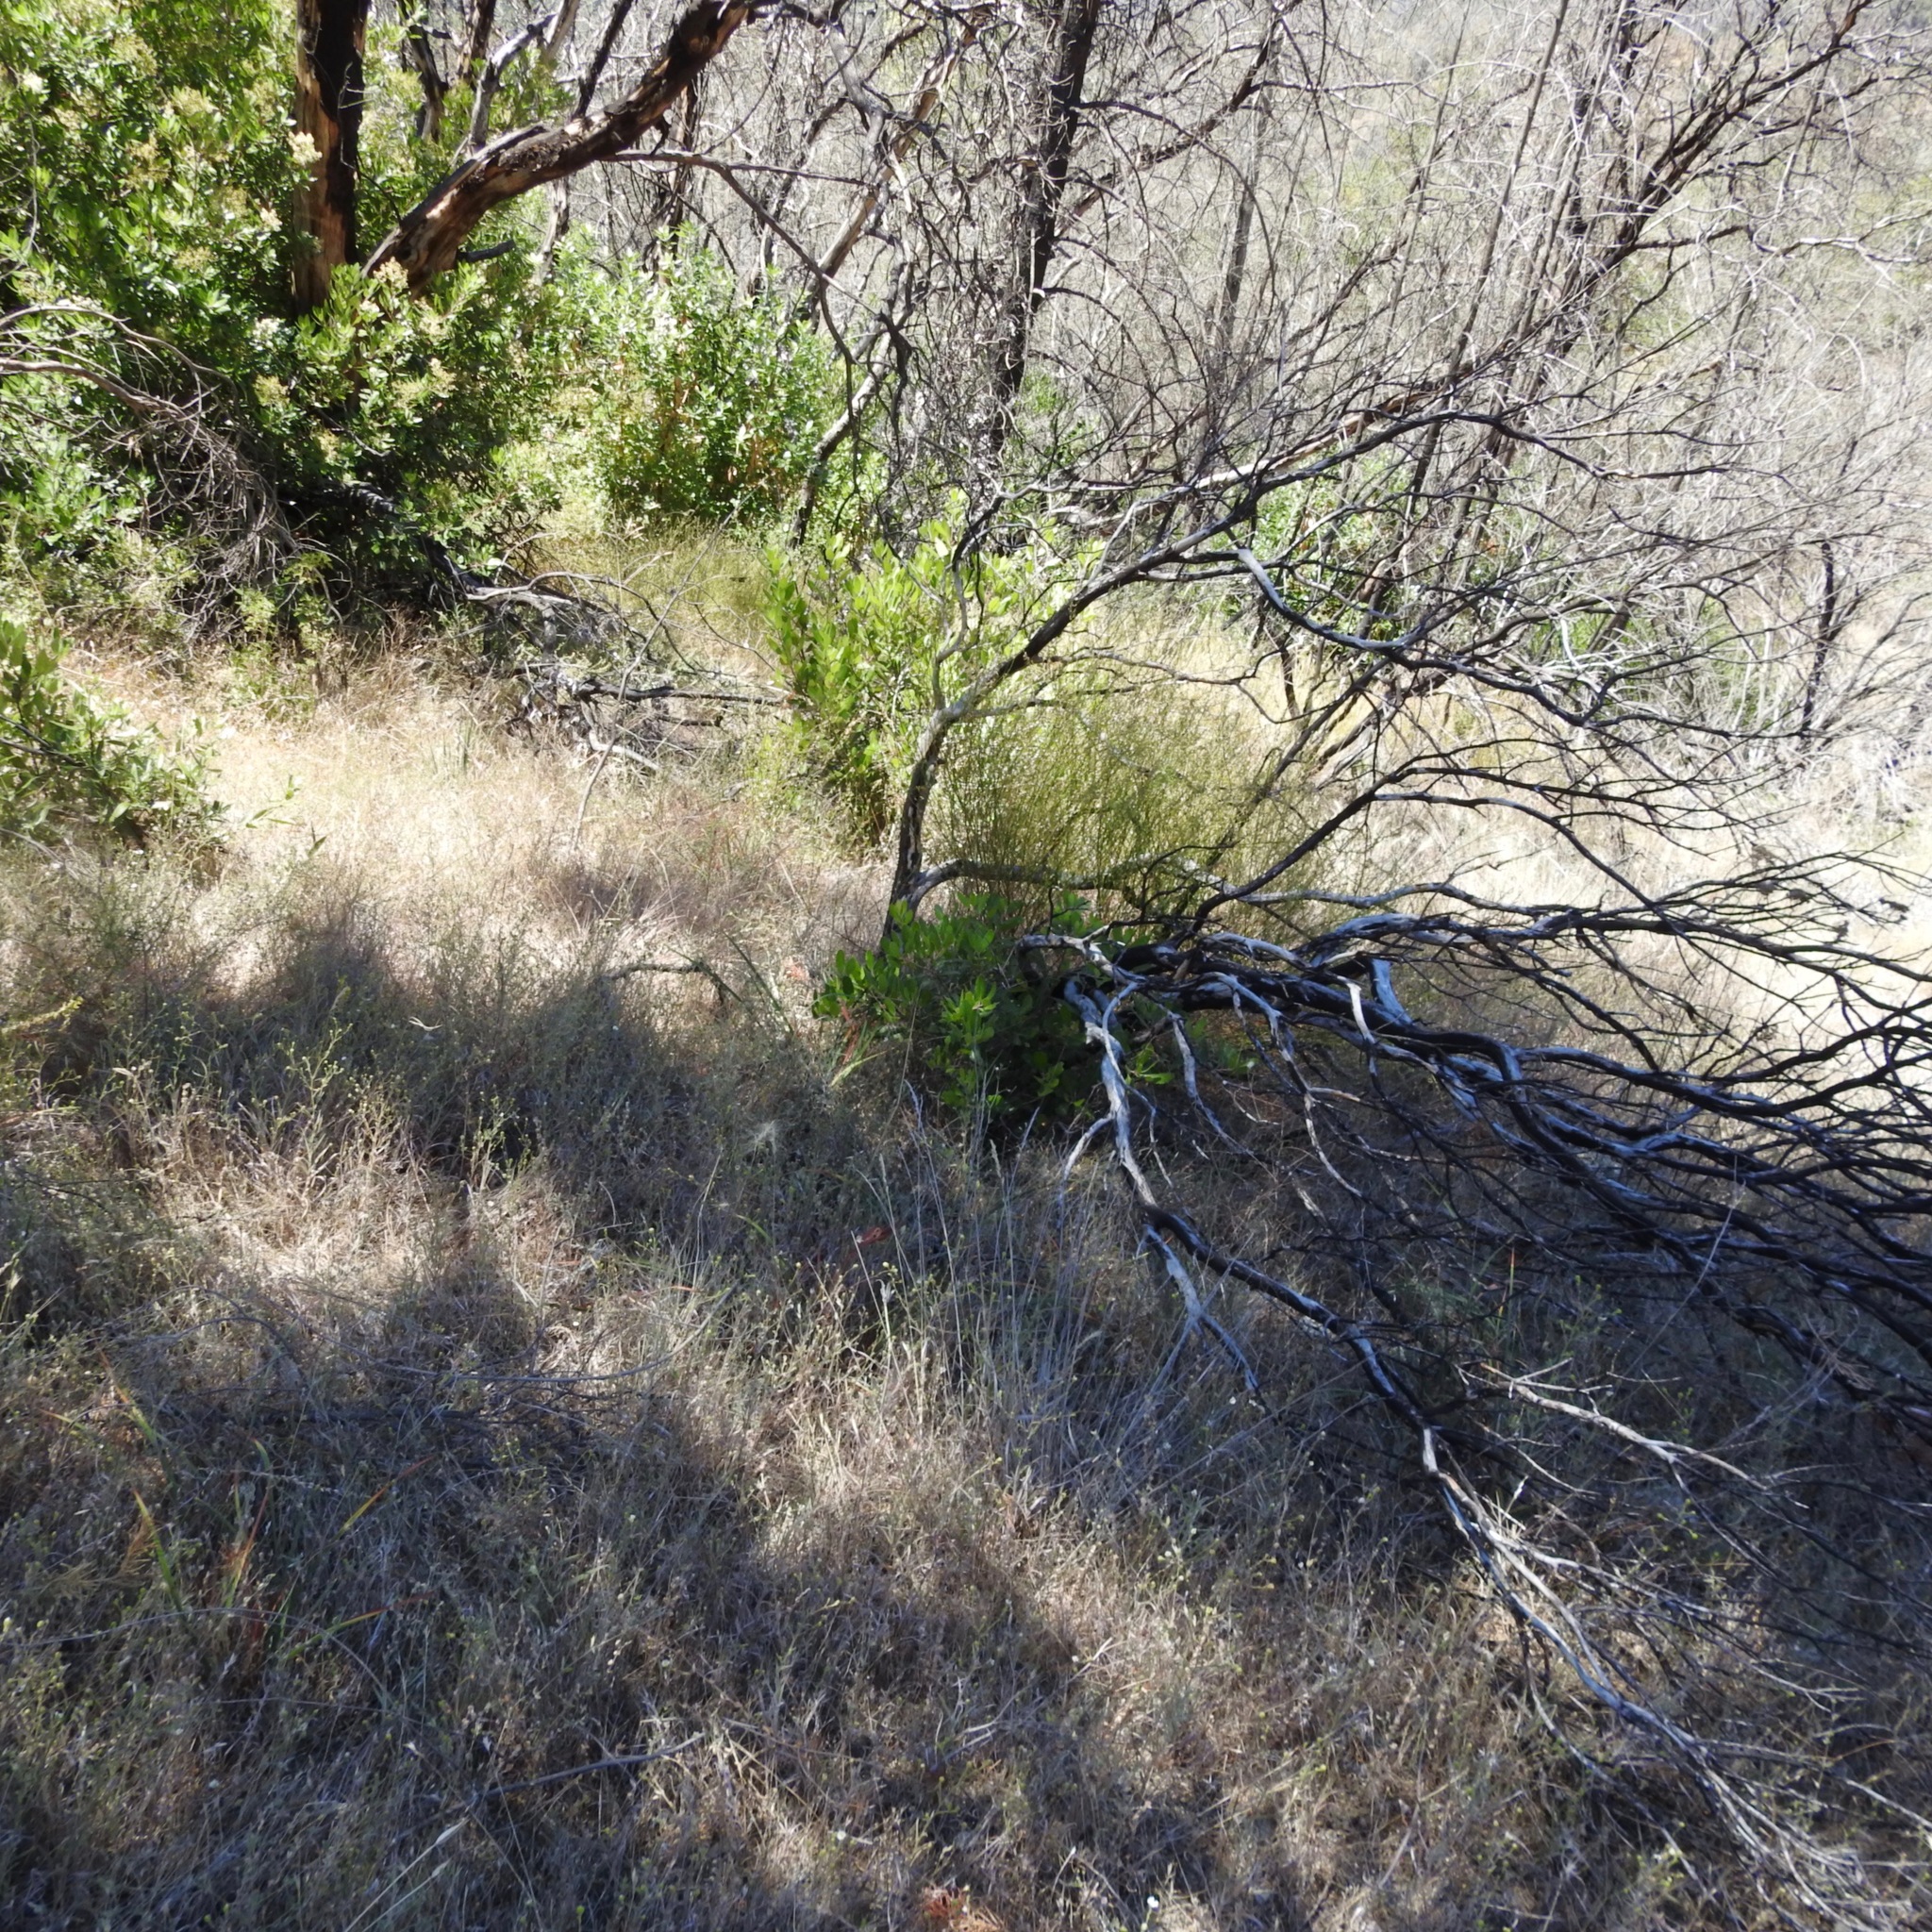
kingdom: Plantae
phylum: Tracheophyta
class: Magnoliopsida
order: Rosales
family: Rosaceae
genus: Heteromeles
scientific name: Heteromeles arbutifolia
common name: California-holly
